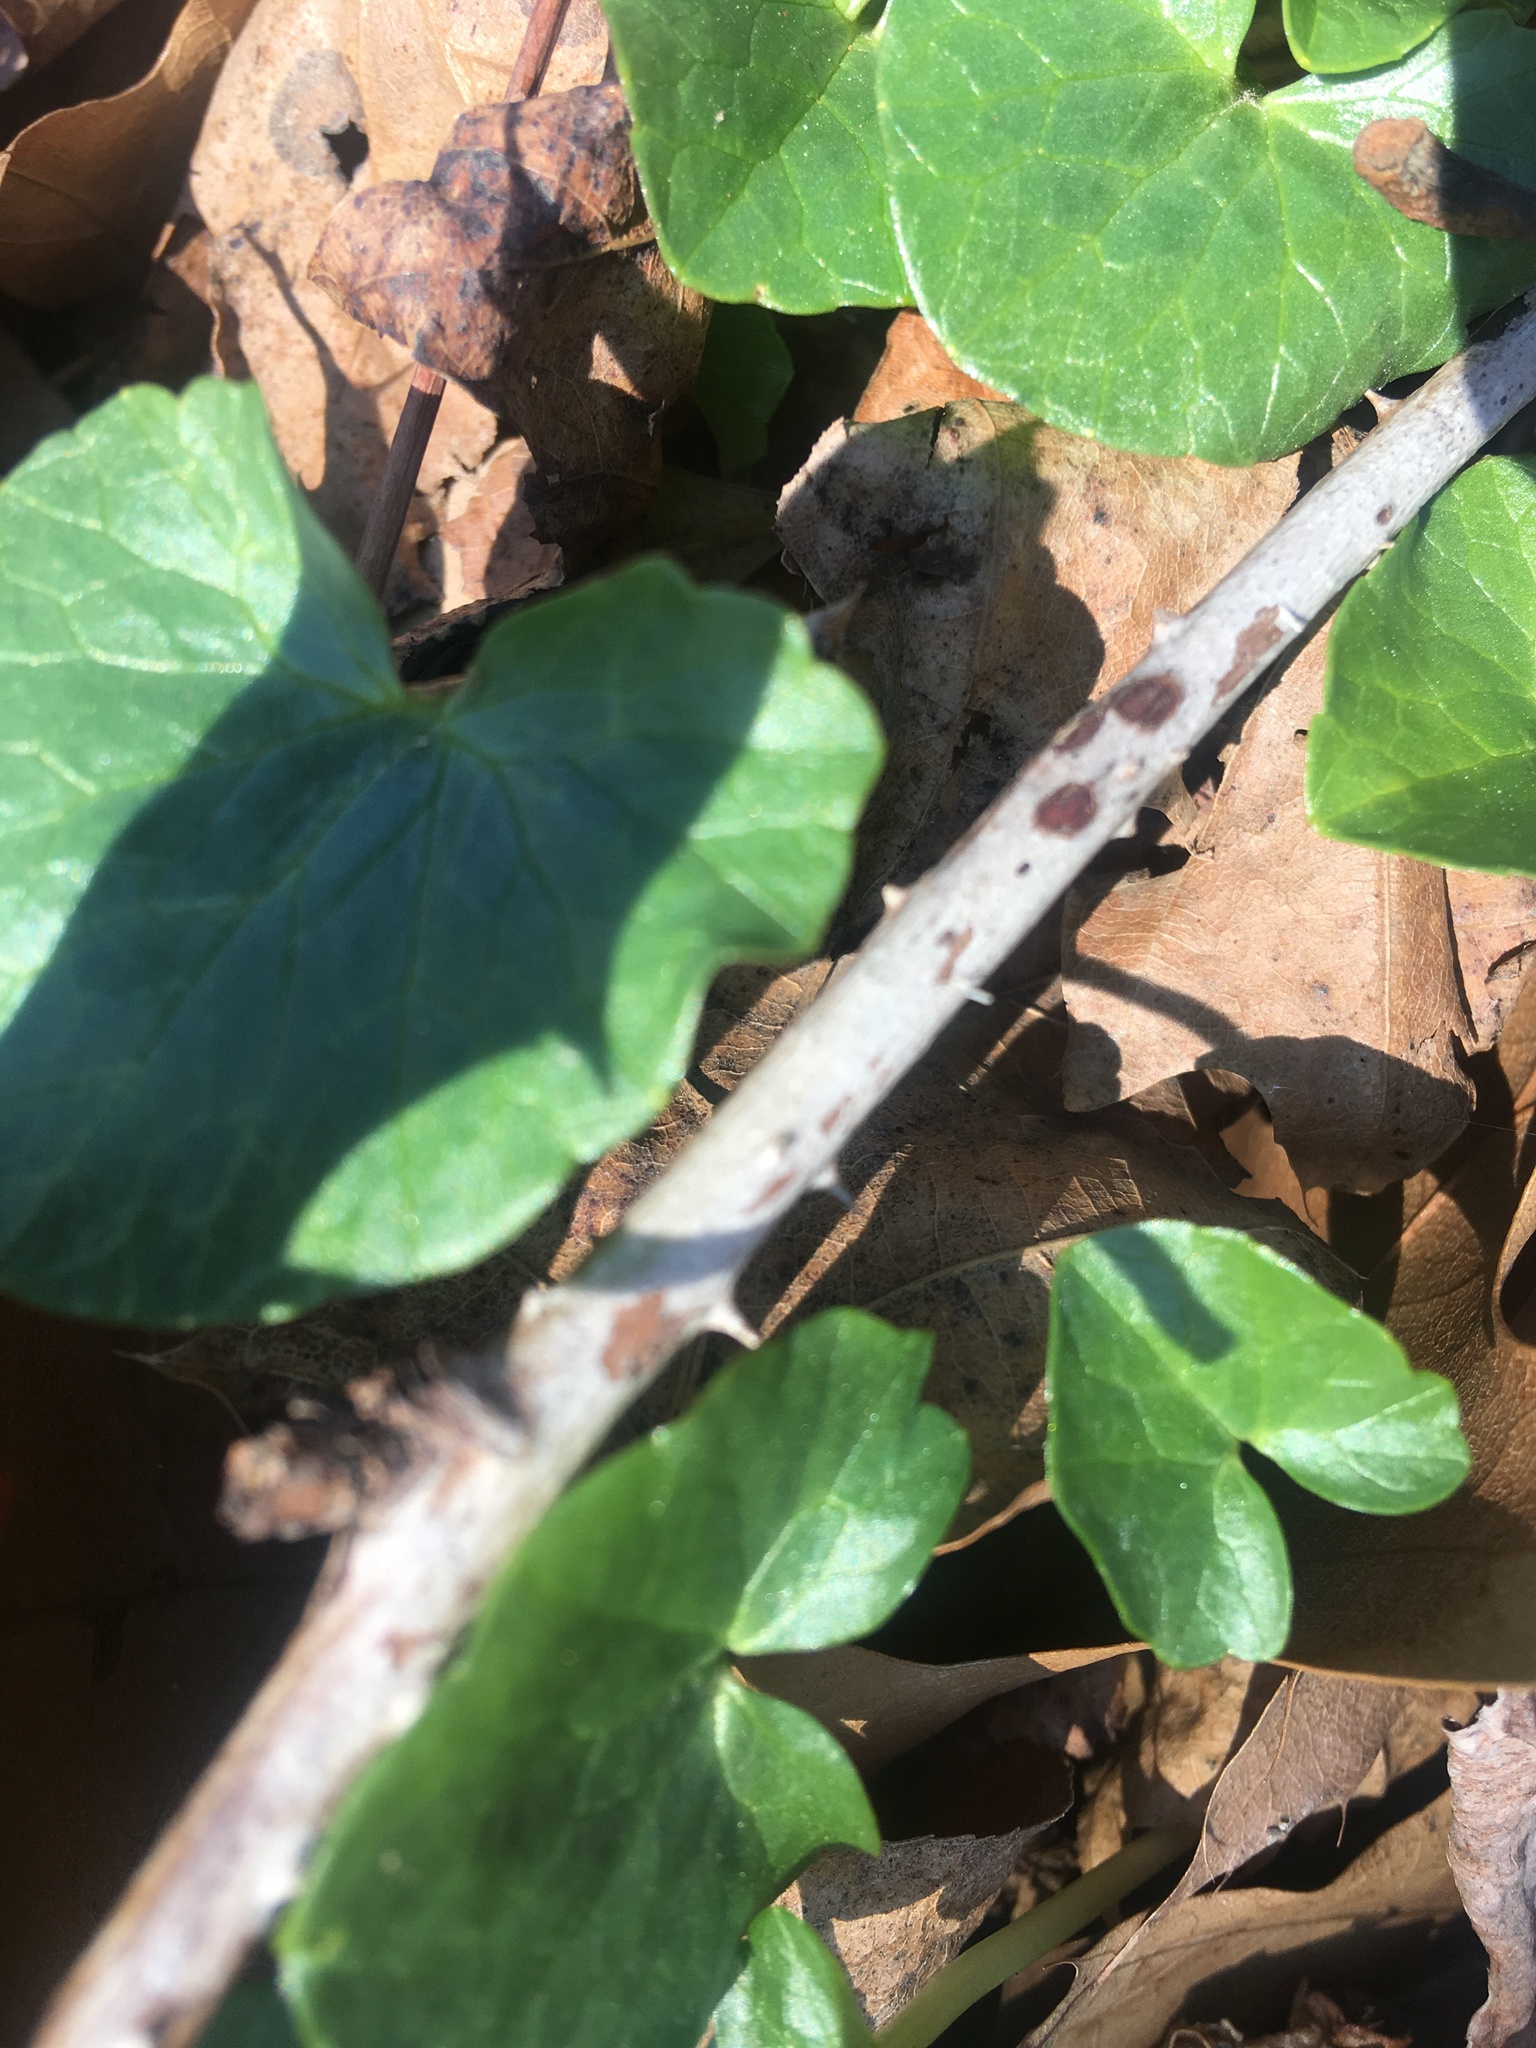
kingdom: Plantae
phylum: Tracheophyta
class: Magnoliopsida
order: Ranunculales
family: Ranunculaceae
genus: Ficaria
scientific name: Ficaria verna
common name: Lesser celandine
